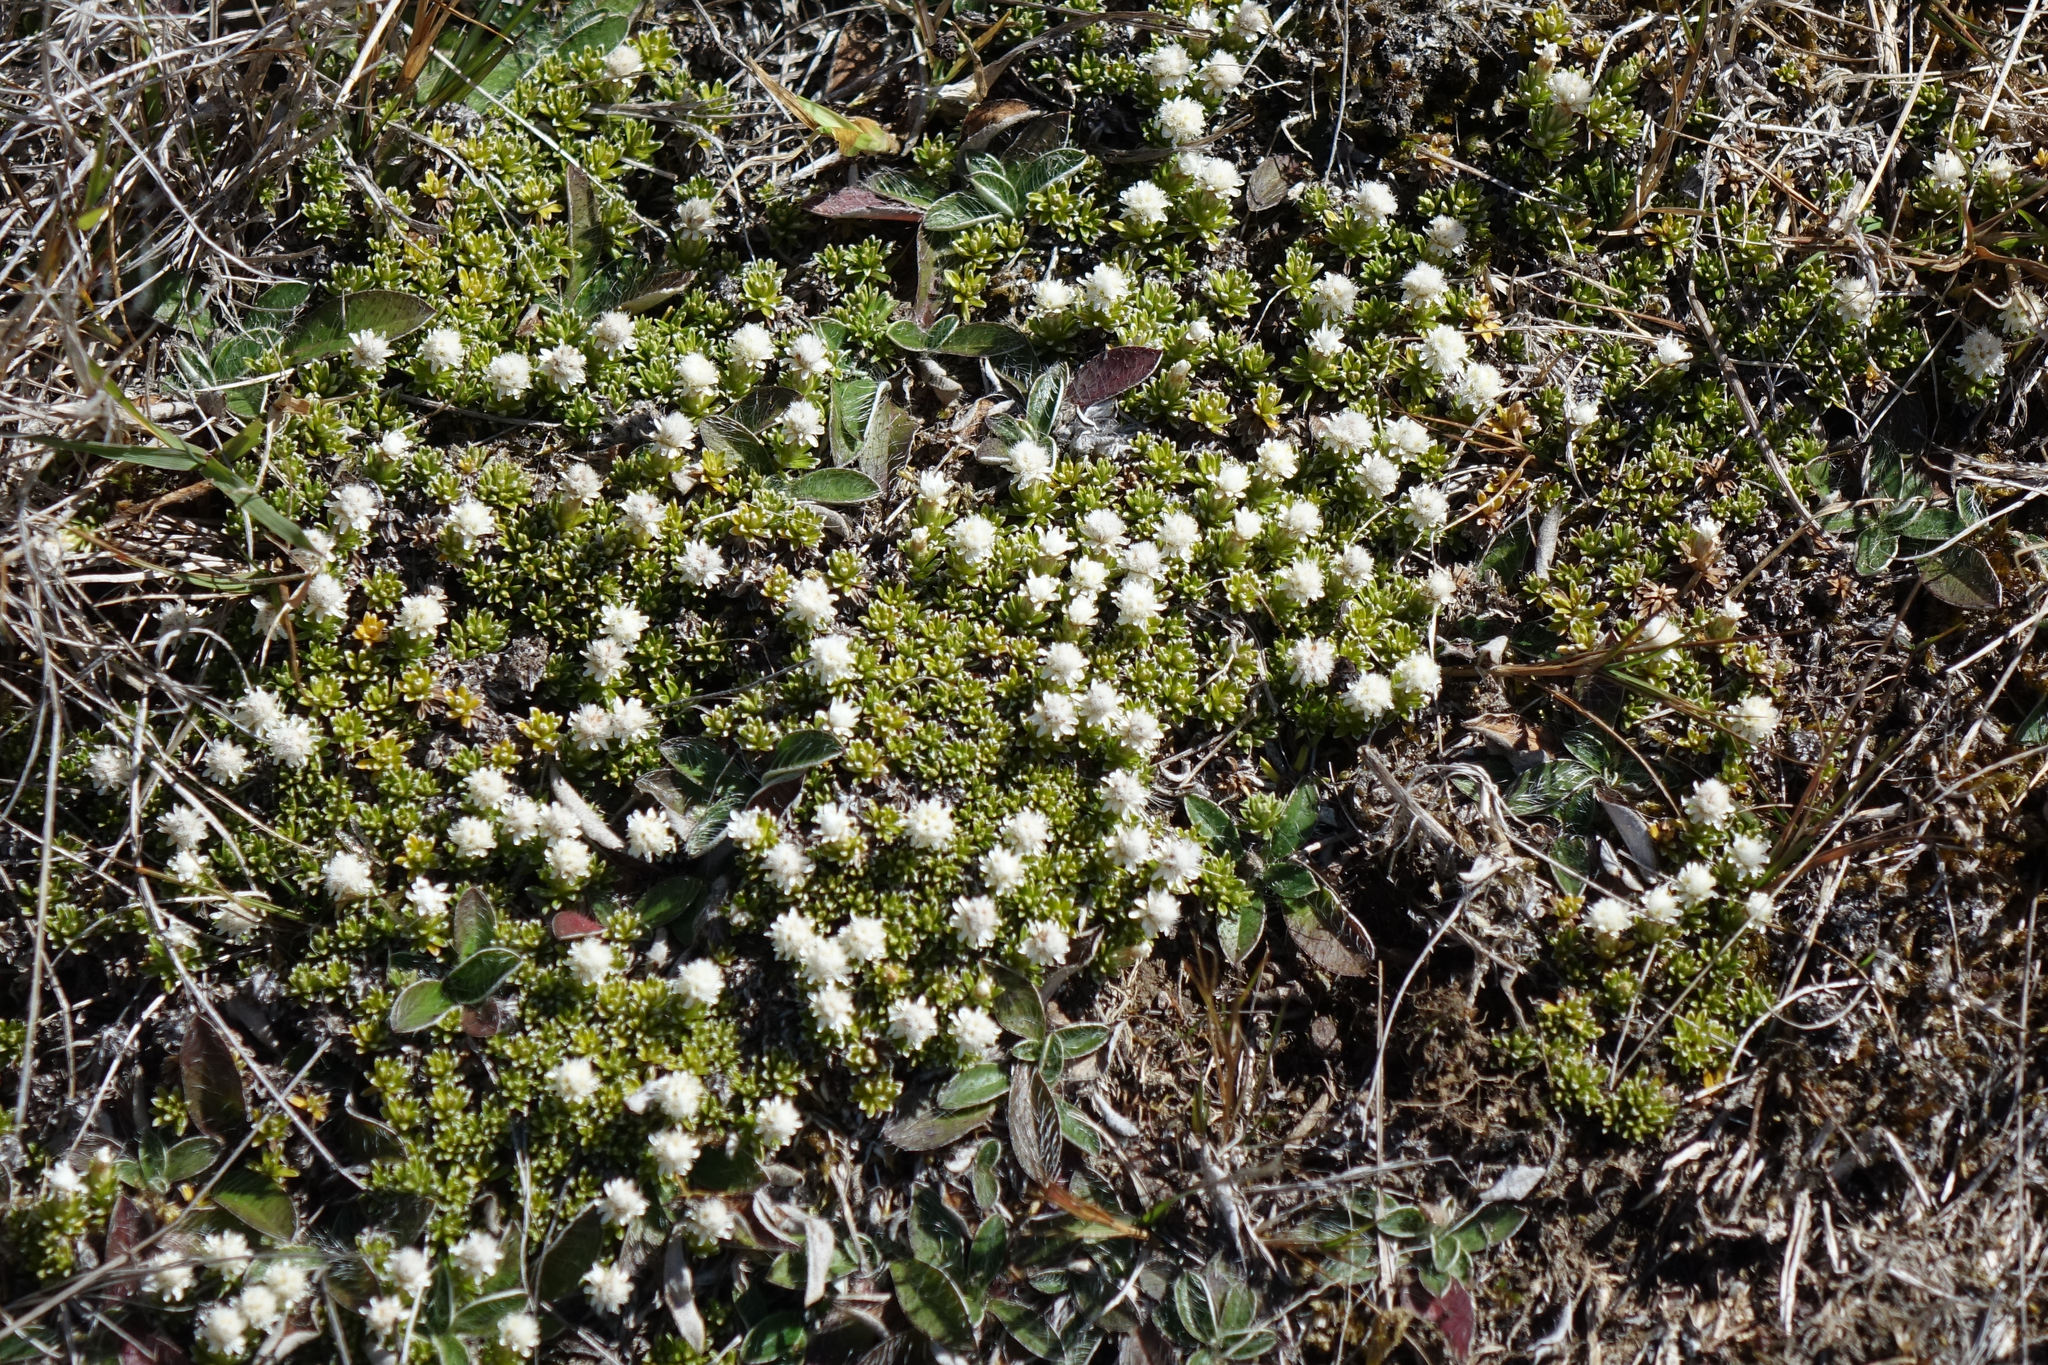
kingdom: Plantae
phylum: Tracheophyta
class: Magnoliopsida
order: Asterales
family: Asteraceae
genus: Raoulia
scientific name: Raoulia subsericea
